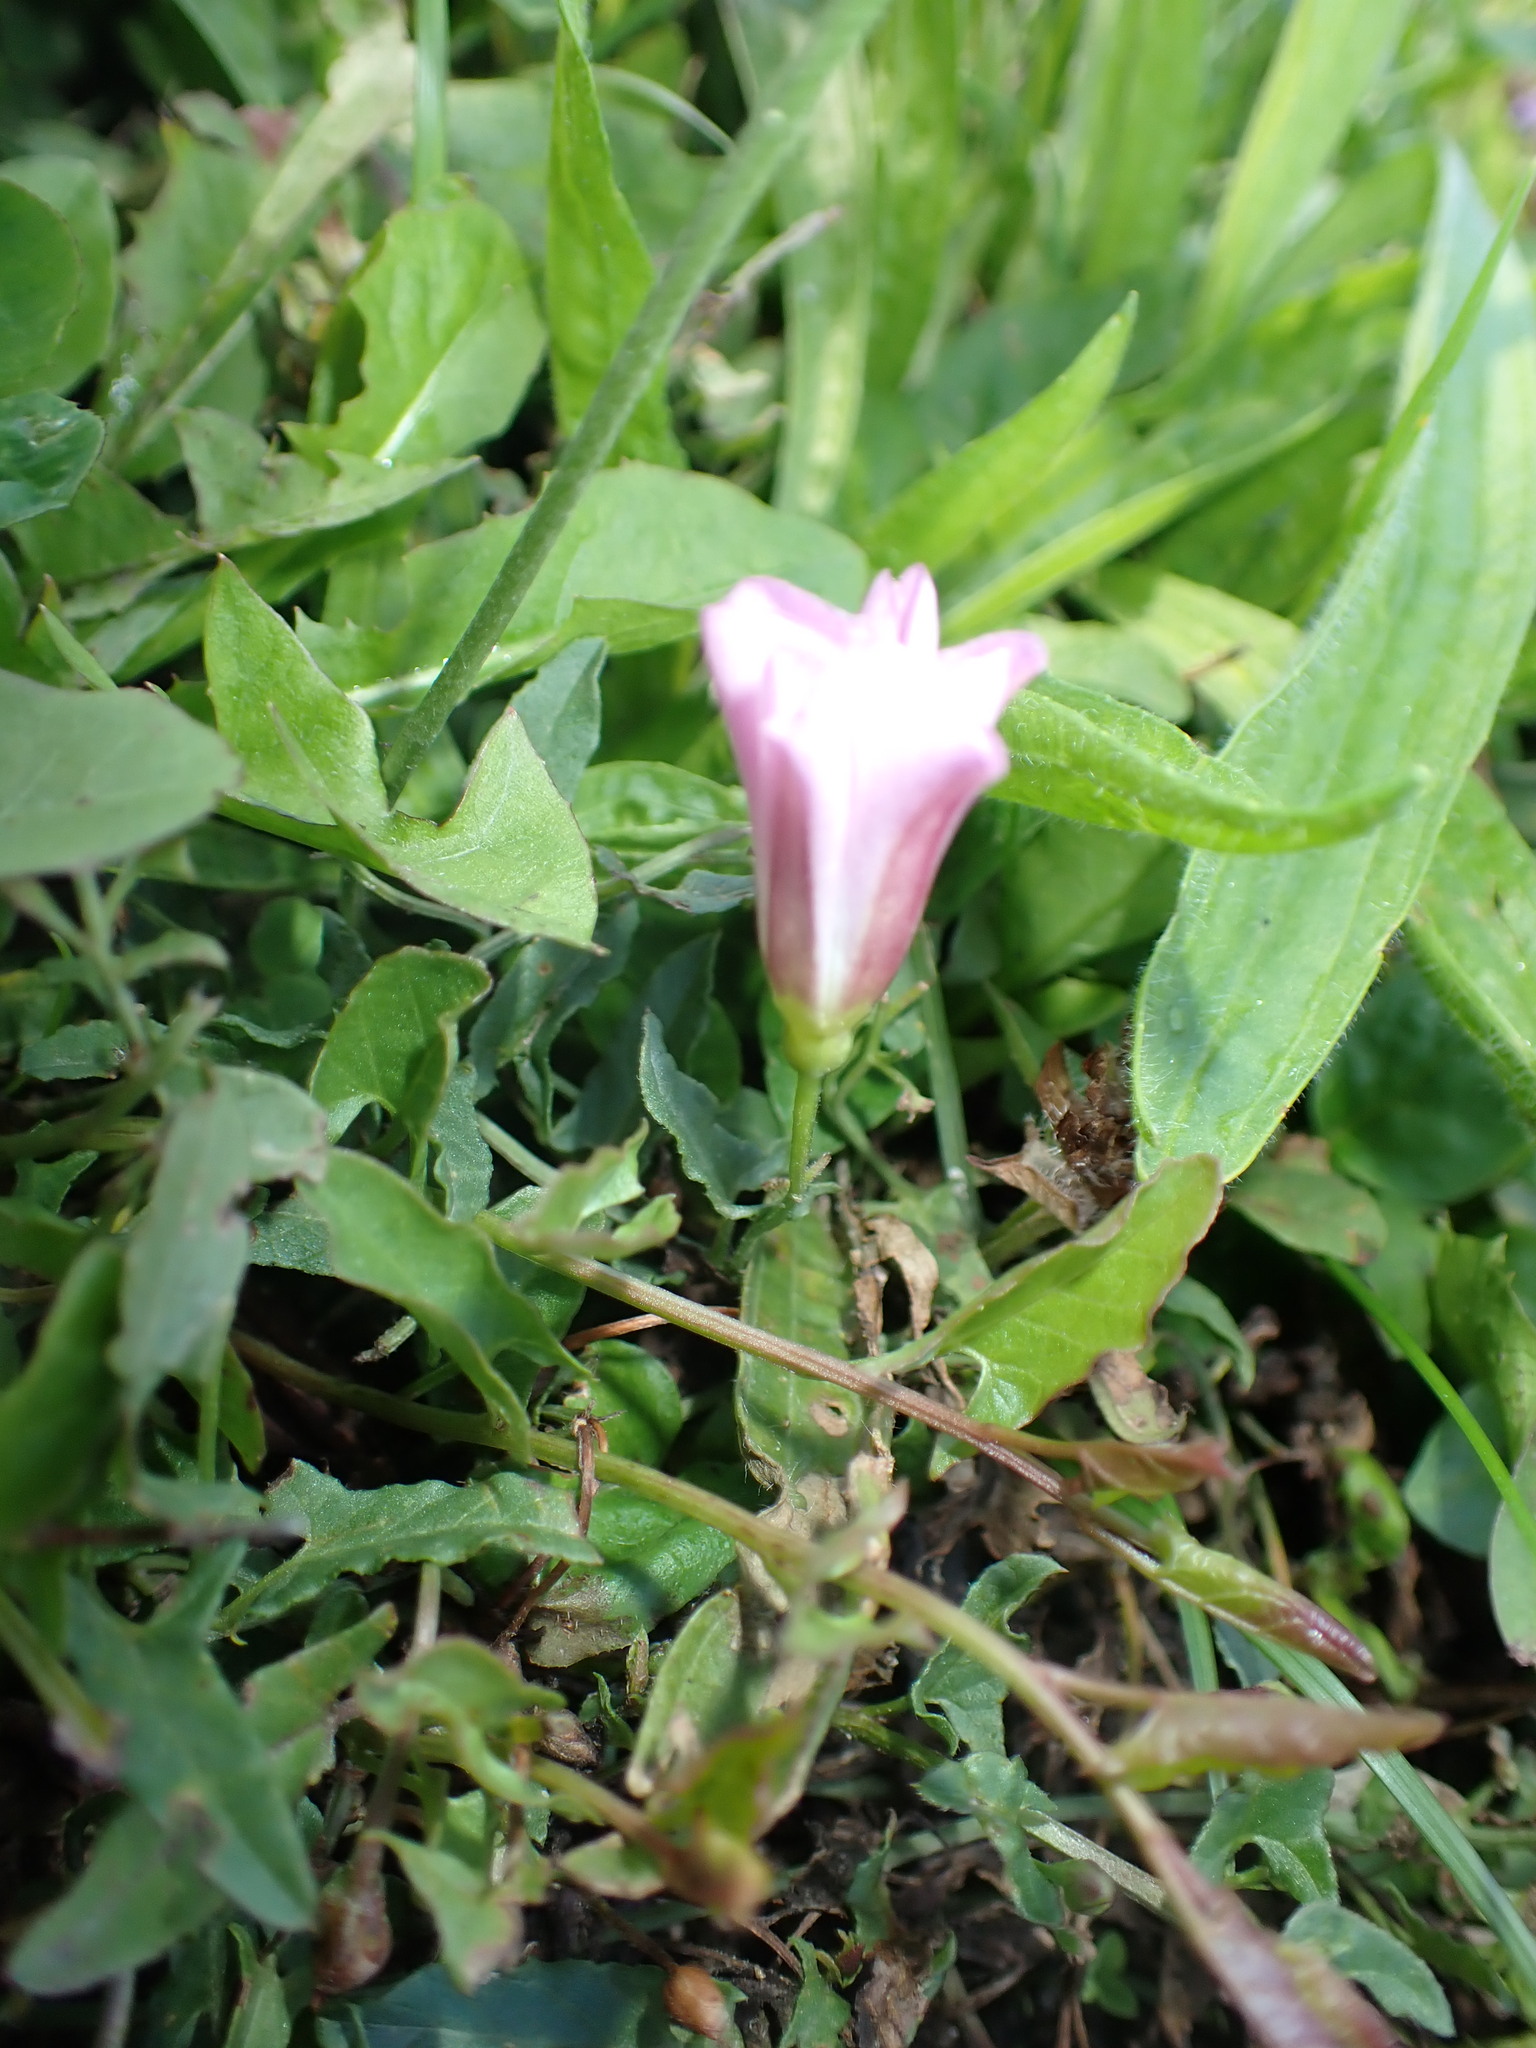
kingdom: Plantae
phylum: Tracheophyta
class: Magnoliopsida
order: Solanales
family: Convolvulaceae
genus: Convolvulus
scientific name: Convolvulus arvensis
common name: Field bindweed
